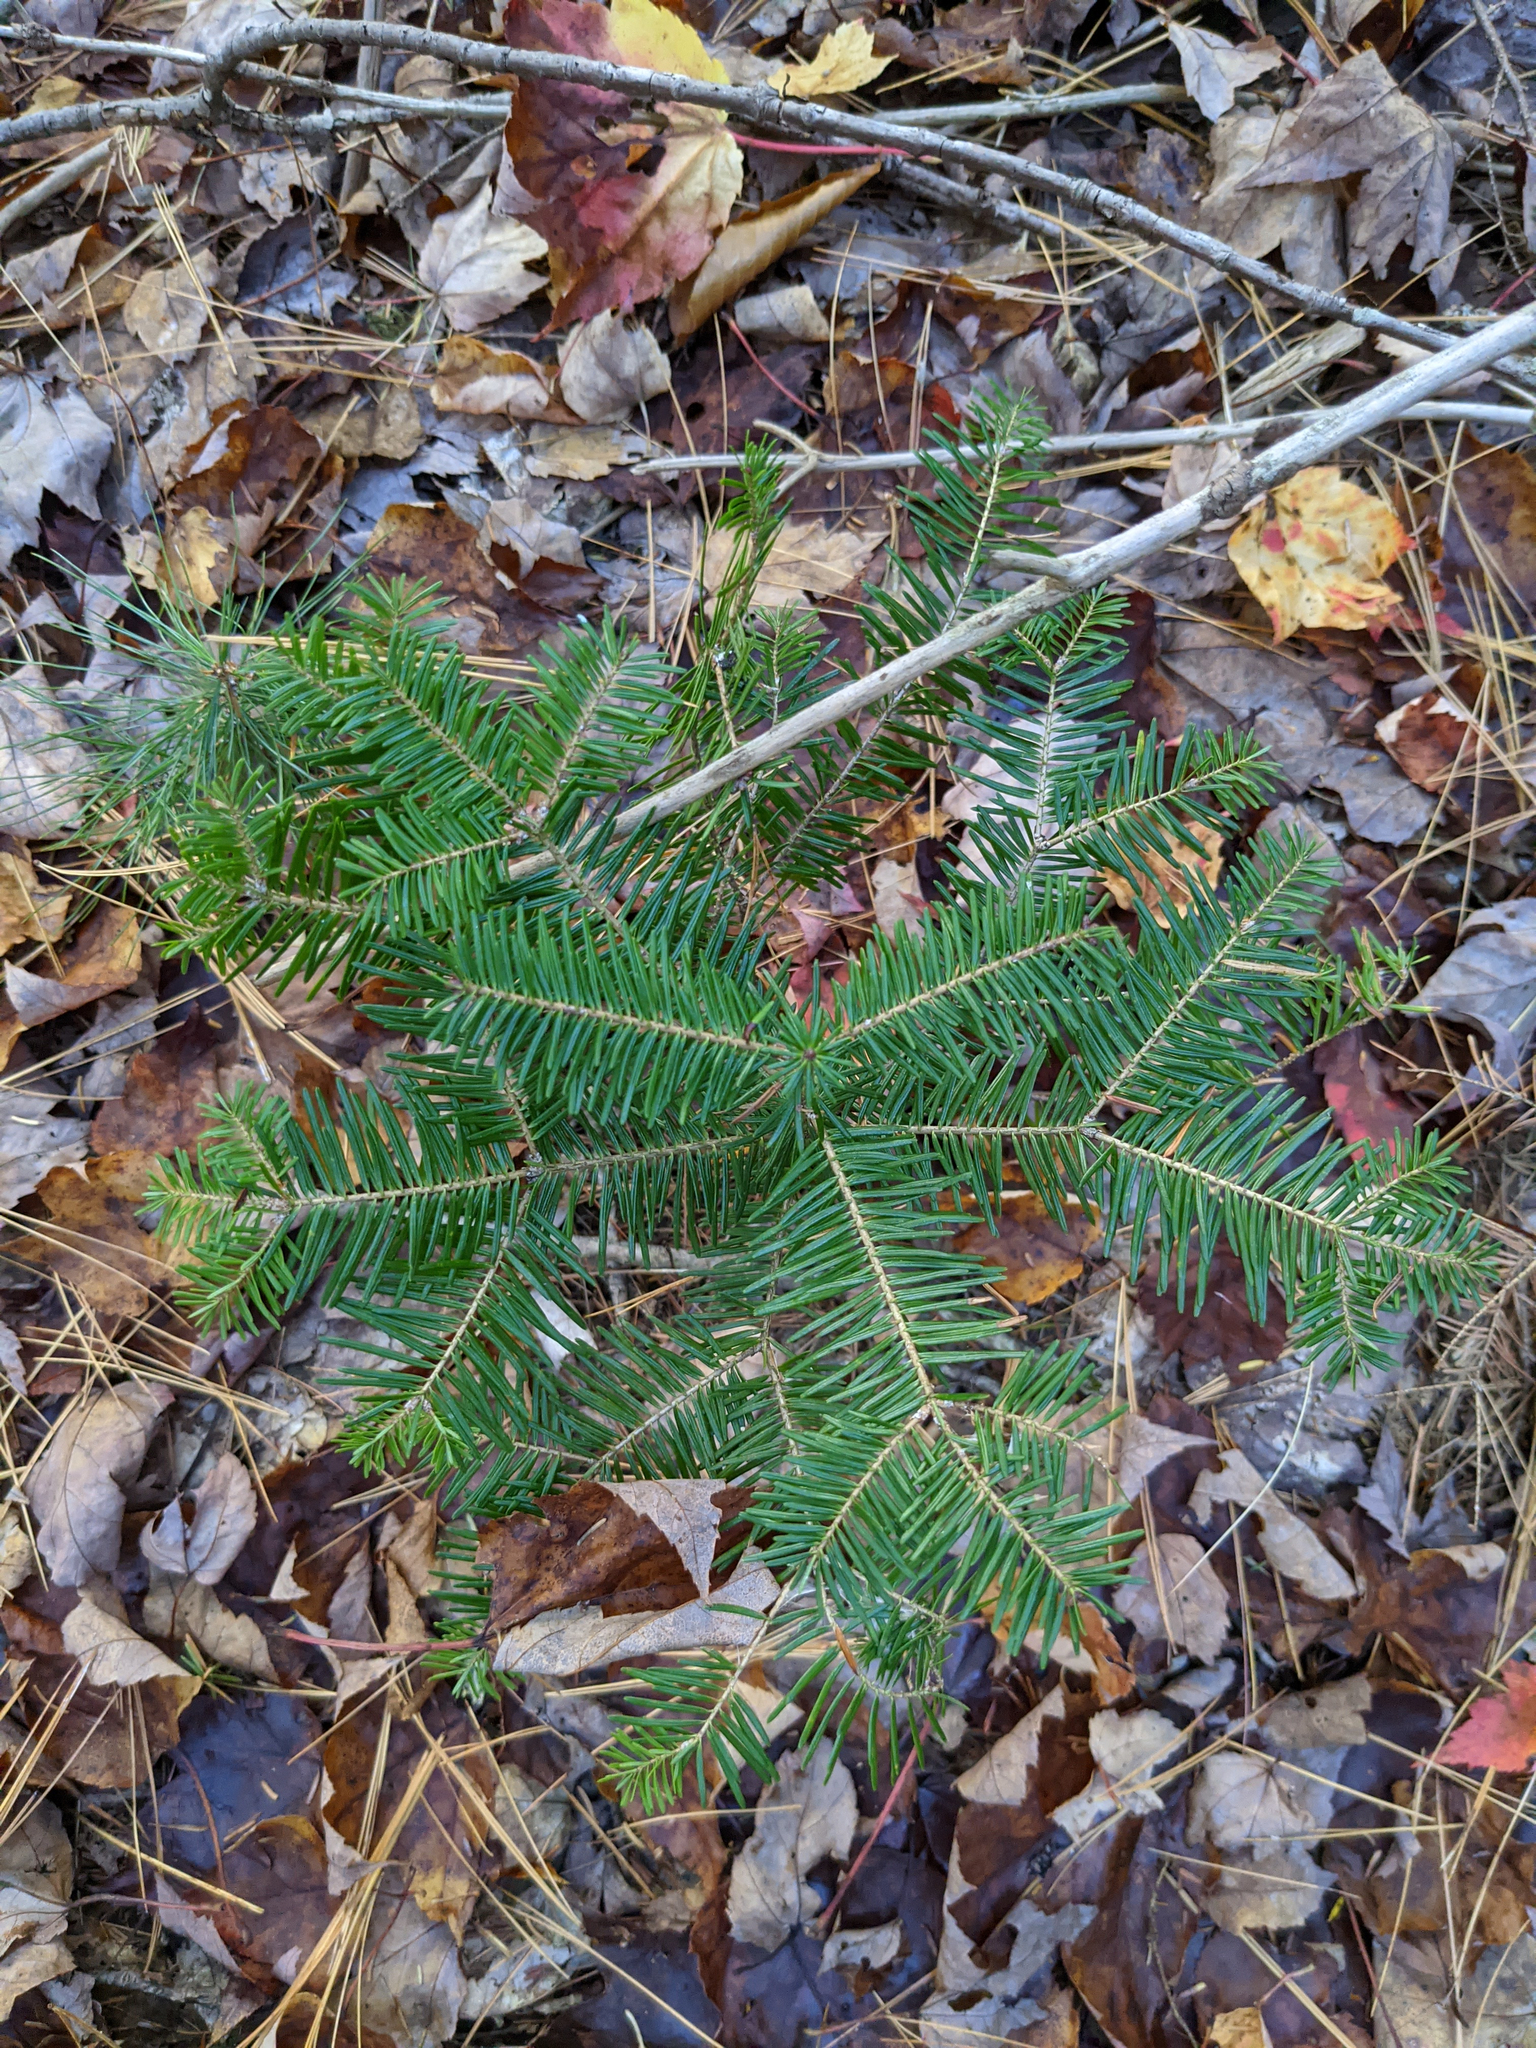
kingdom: Plantae
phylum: Tracheophyta
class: Pinopsida
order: Pinales
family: Pinaceae
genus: Abies
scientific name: Abies balsamea
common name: Balsam fir
